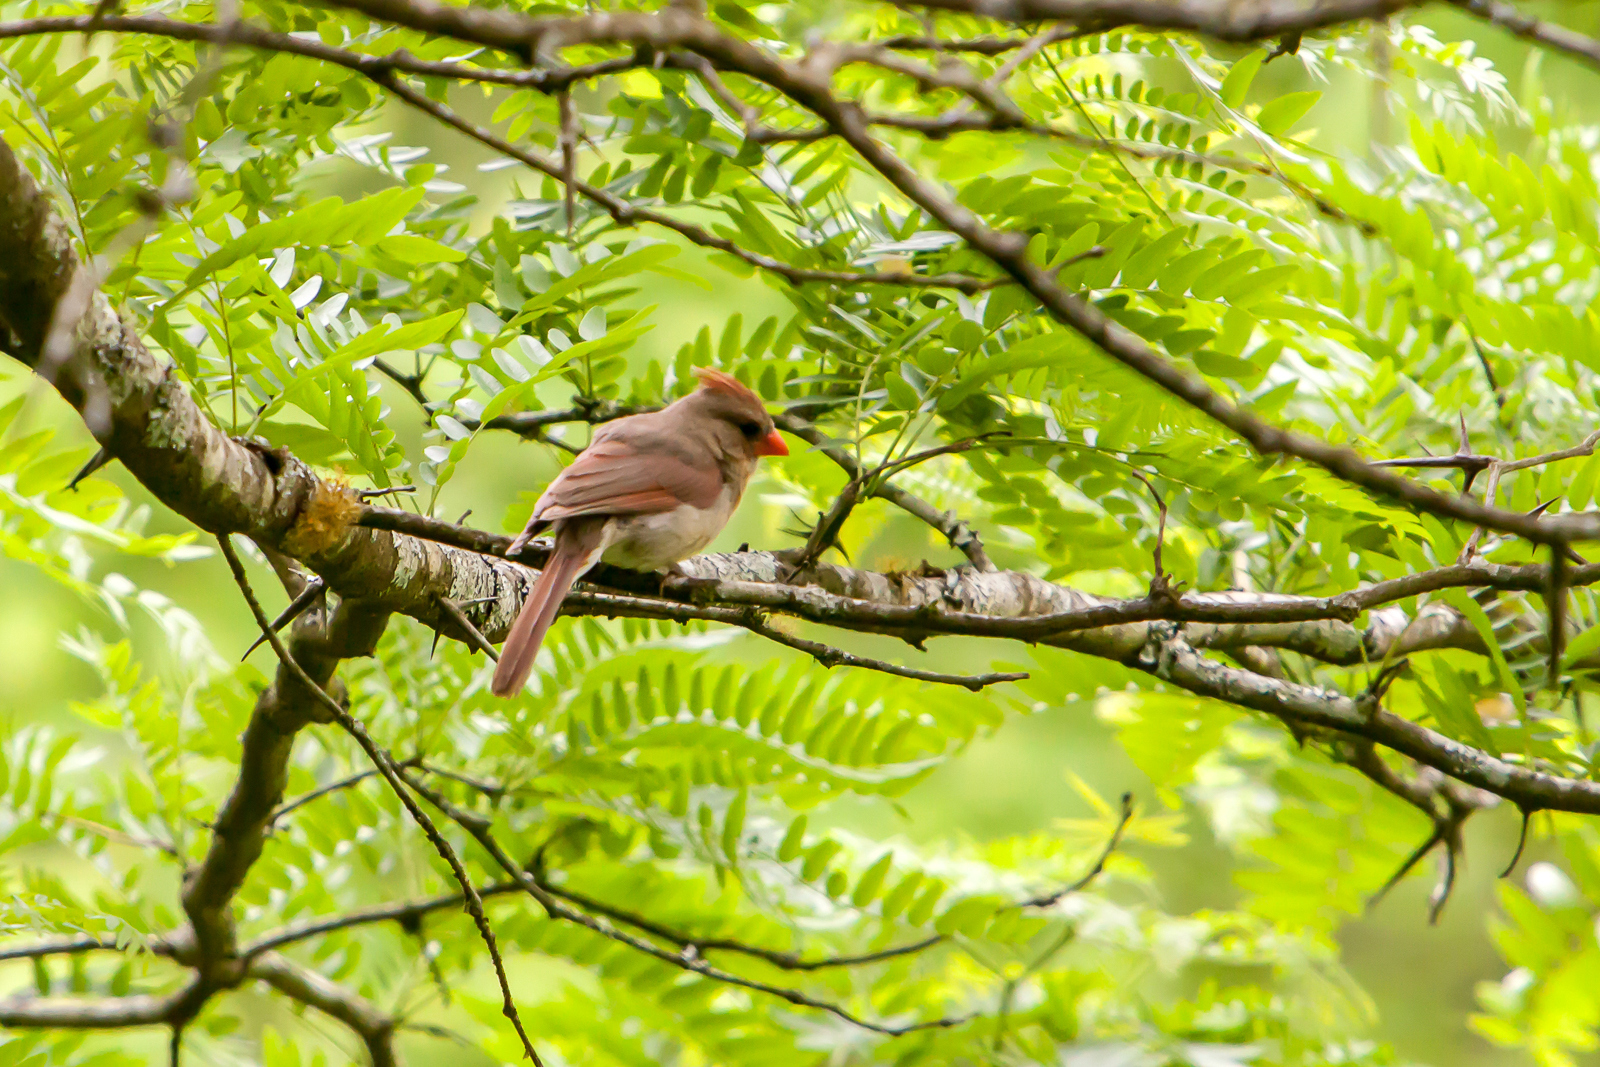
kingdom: Animalia
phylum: Chordata
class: Aves
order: Passeriformes
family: Cardinalidae
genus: Cardinalis
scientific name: Cardinalis cardinalis
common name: Northern cardinal
